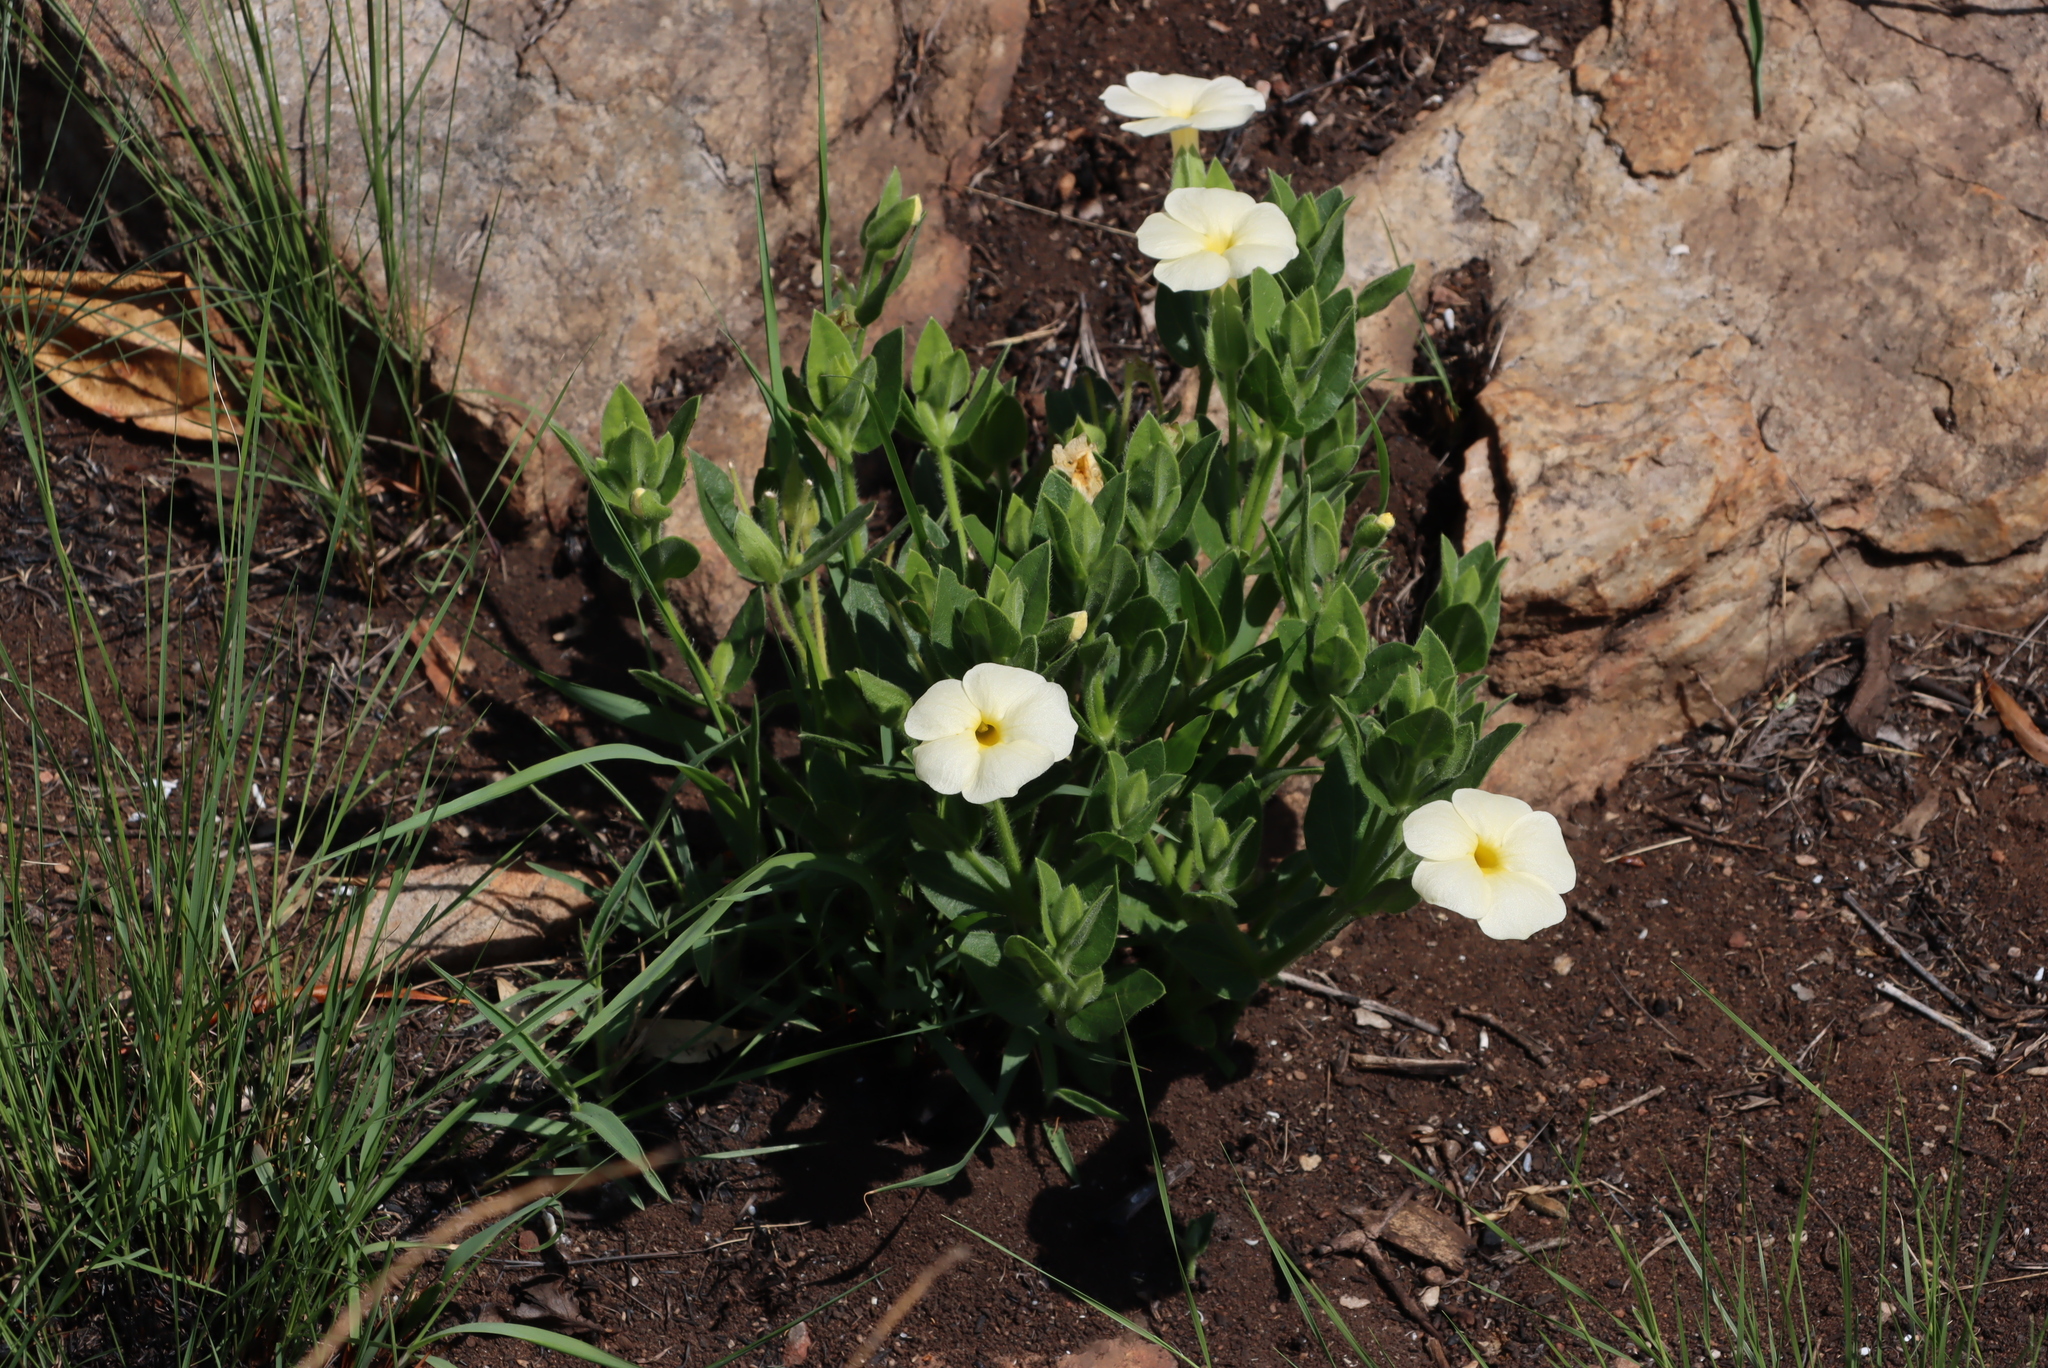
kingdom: Plantae
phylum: Tracheophyta
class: Magnoliopsida
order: Lamiales
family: Acanthaceae
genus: Thunbergia
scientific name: Thunbergia atriplicifolia
